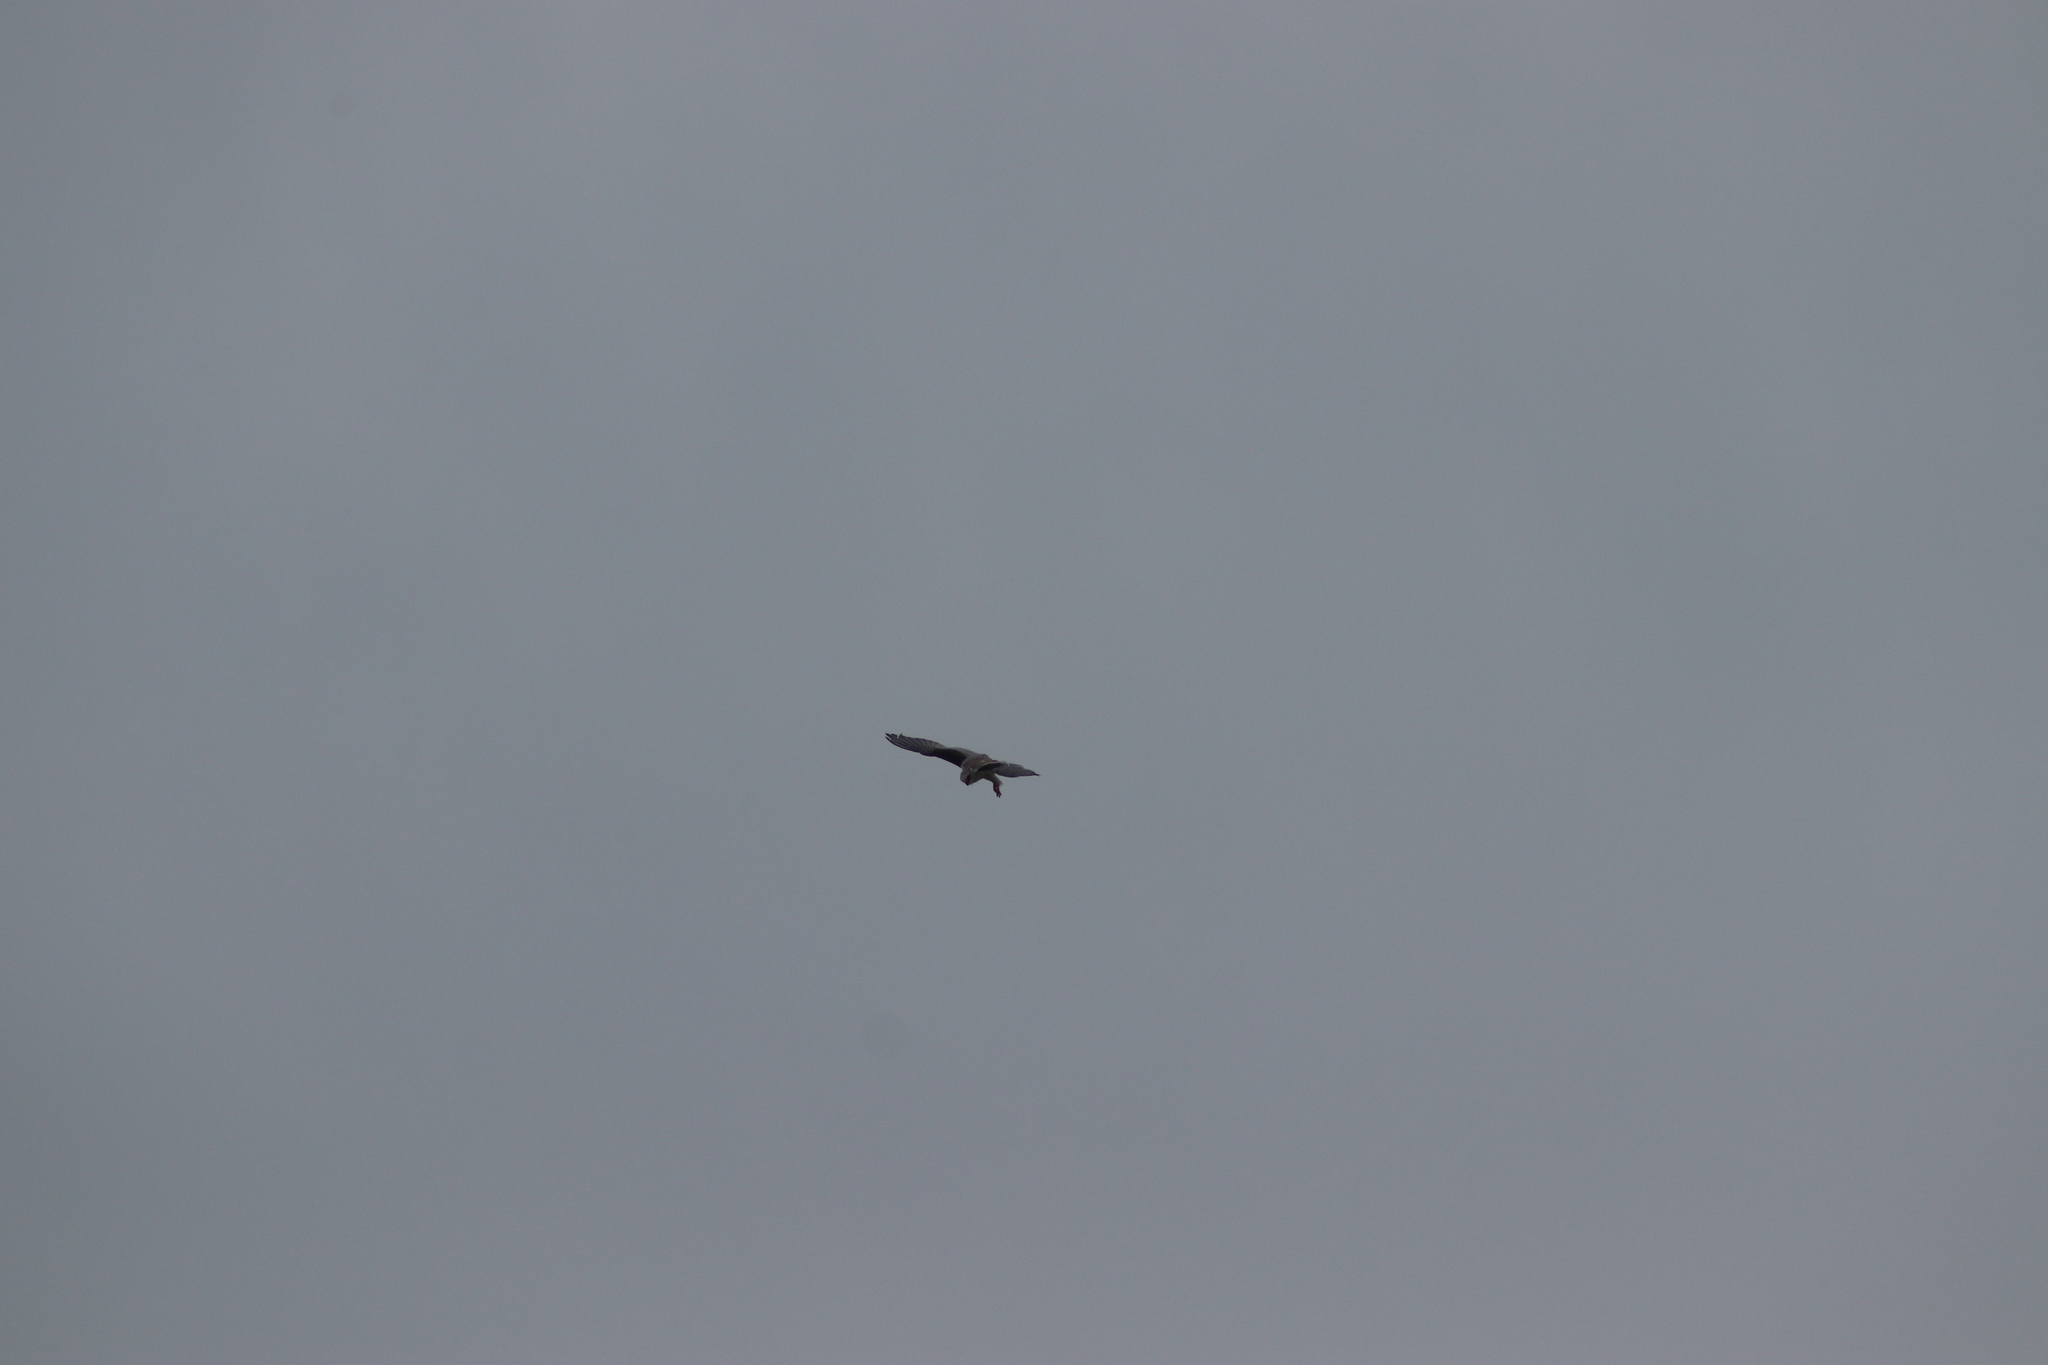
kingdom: Animalia
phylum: Chordata
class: Aves
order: Accipitriformes
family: Accipitridae
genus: Elanus
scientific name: Elanus leucurus
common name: White-tailed kite
